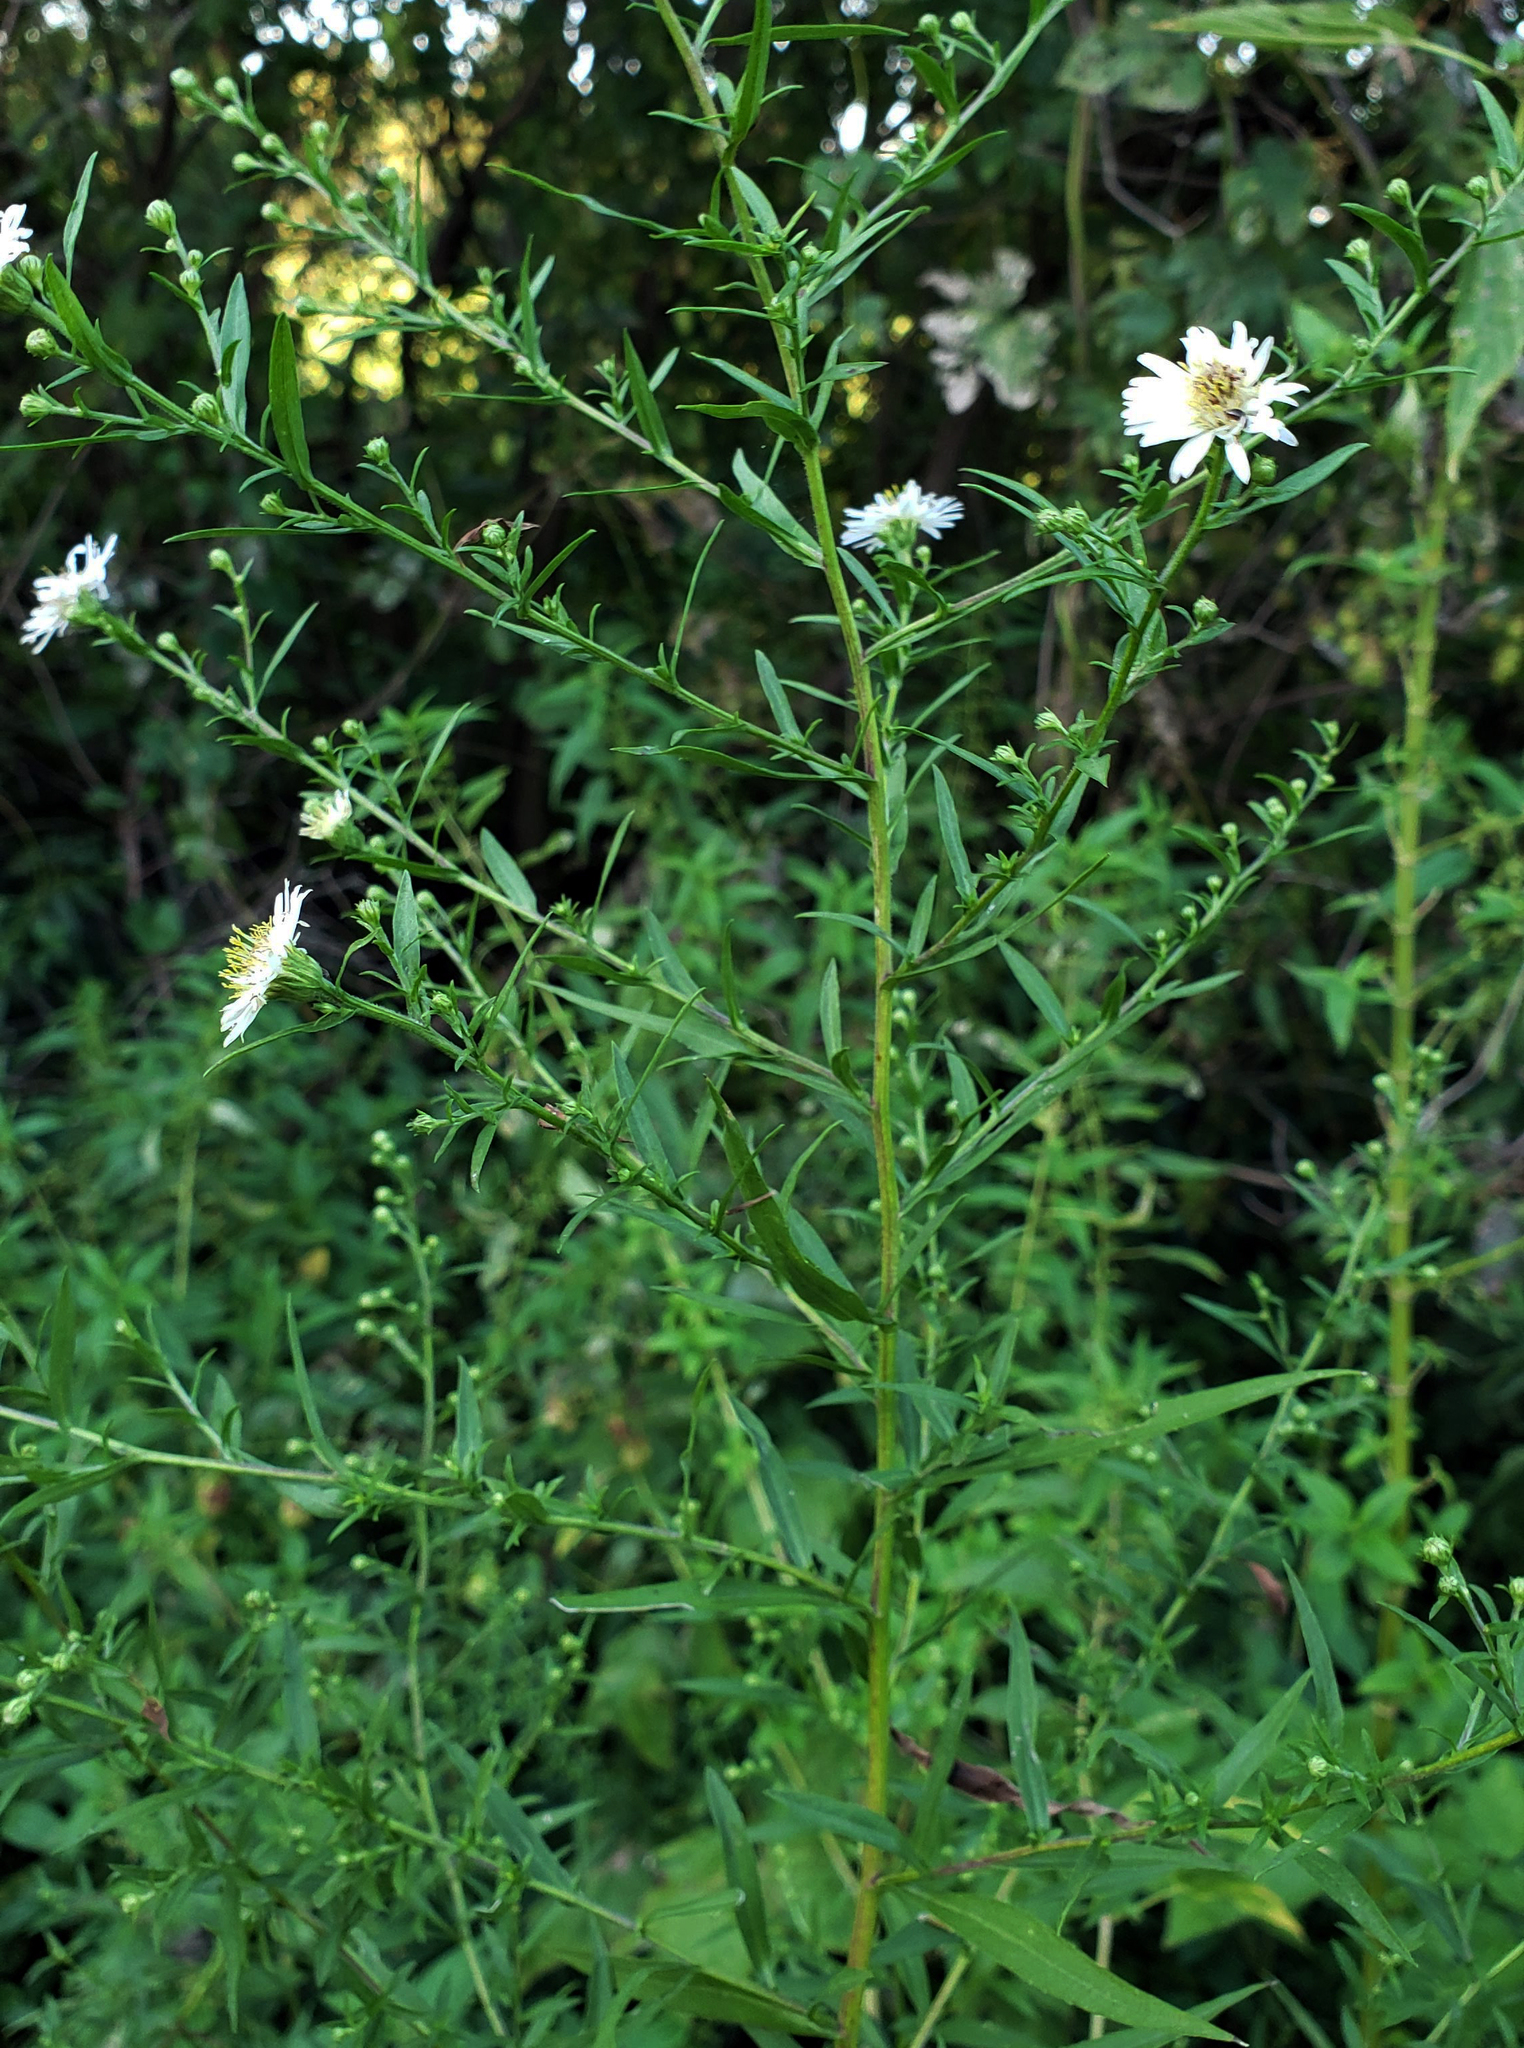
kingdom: Plantae
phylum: Tracheophyta
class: Magnoliopsida
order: Asterales
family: Asteraceae
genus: Symphyotrichum
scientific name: Symphyotrichum pilosum
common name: Awl aster
